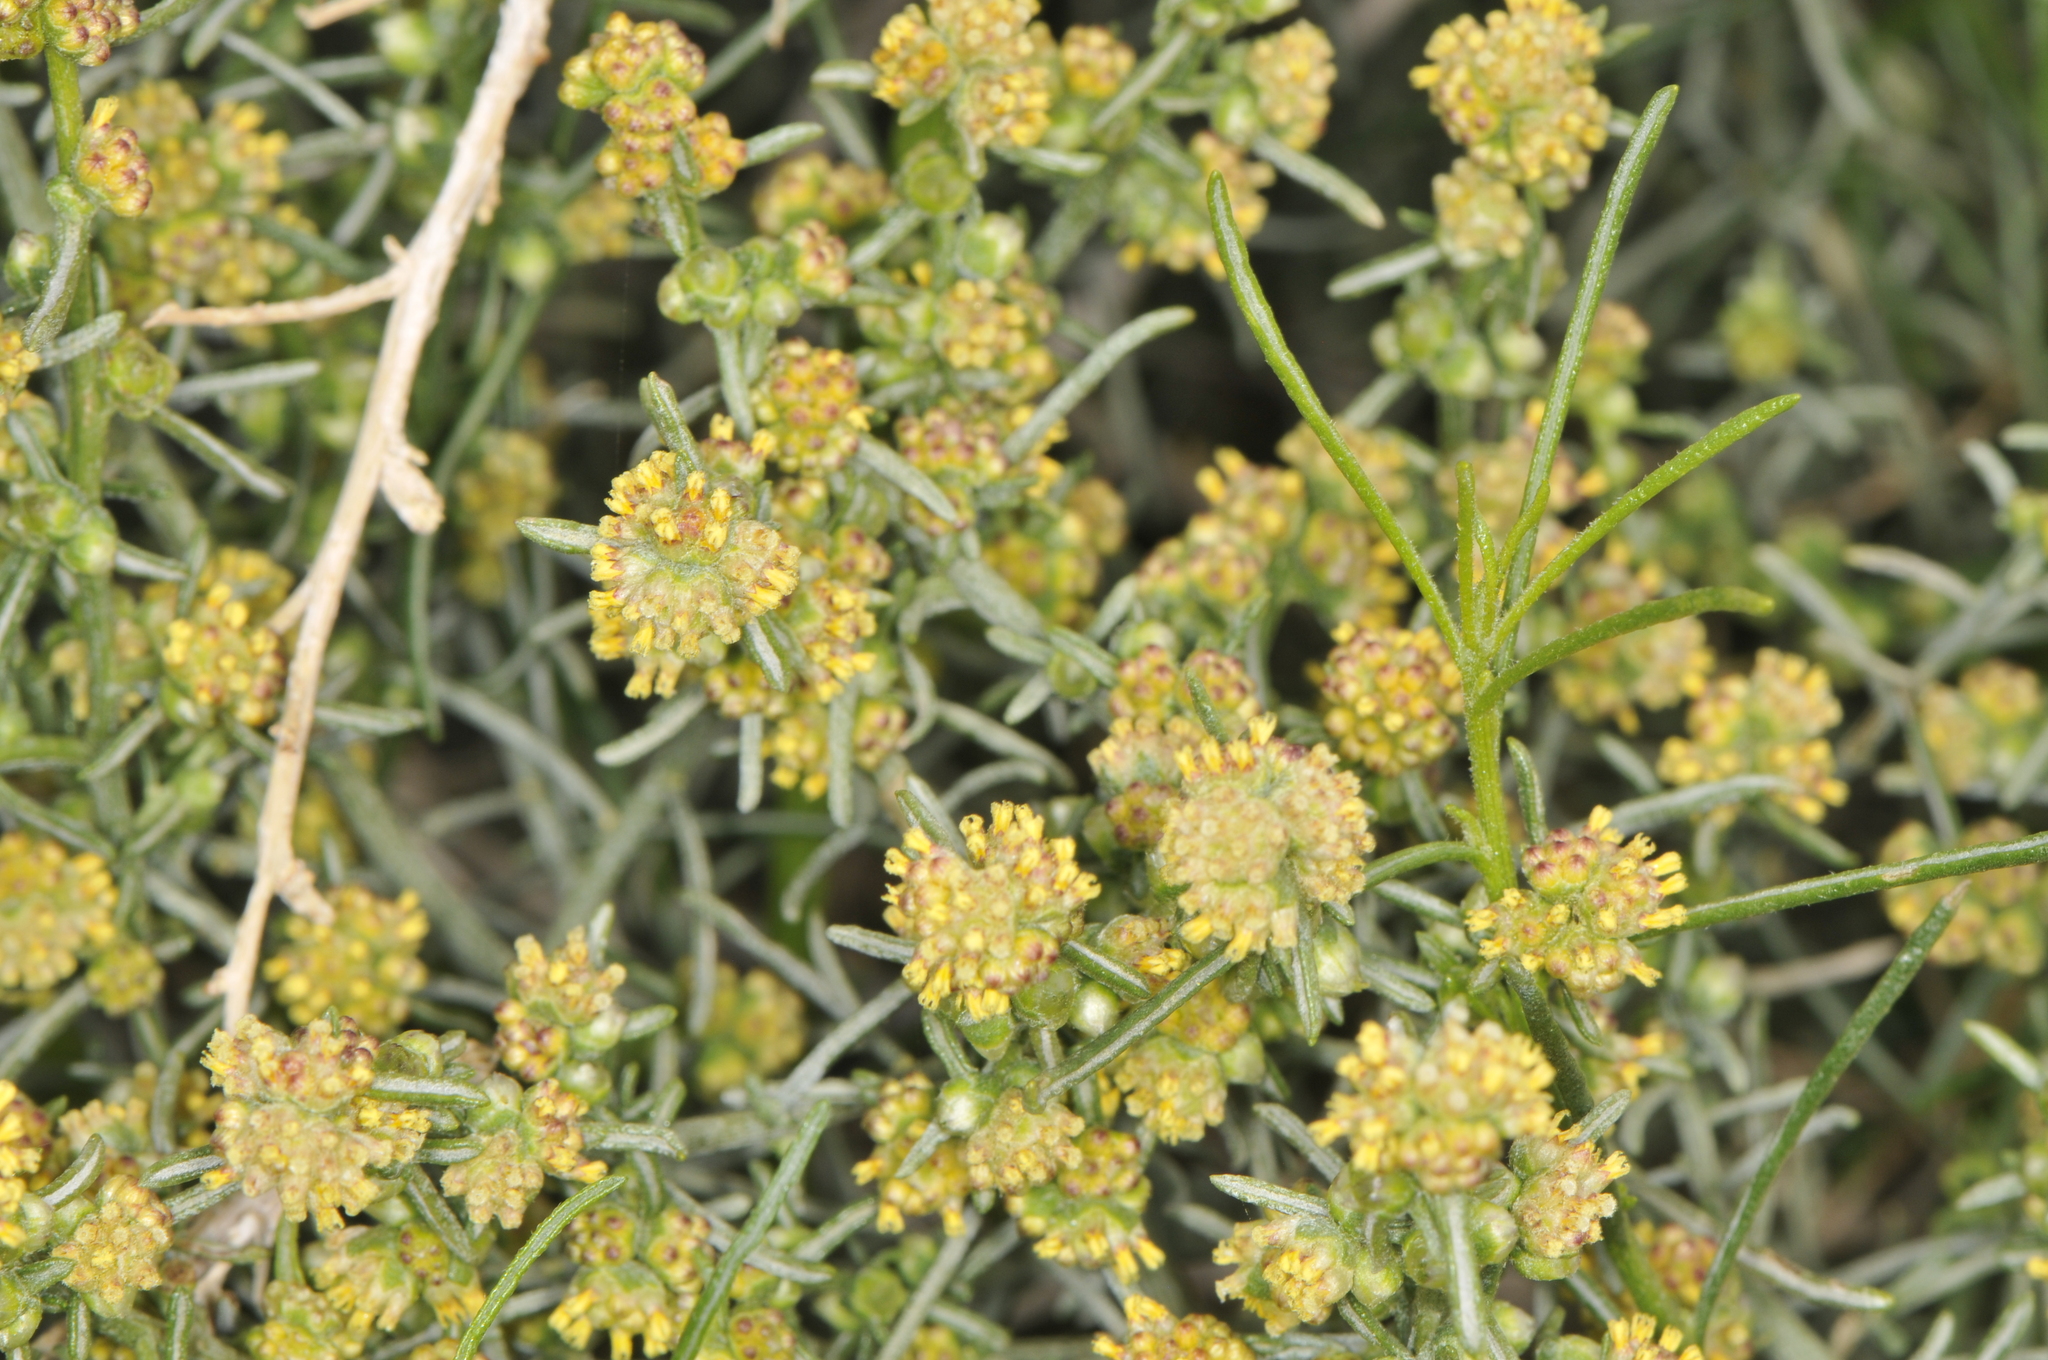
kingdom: Plantae
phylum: Tracheophyta
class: Magnoliopsida
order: Asterales
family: Asteraceae
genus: Ambrosia
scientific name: Ambrosia salsola
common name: Burrobrush
